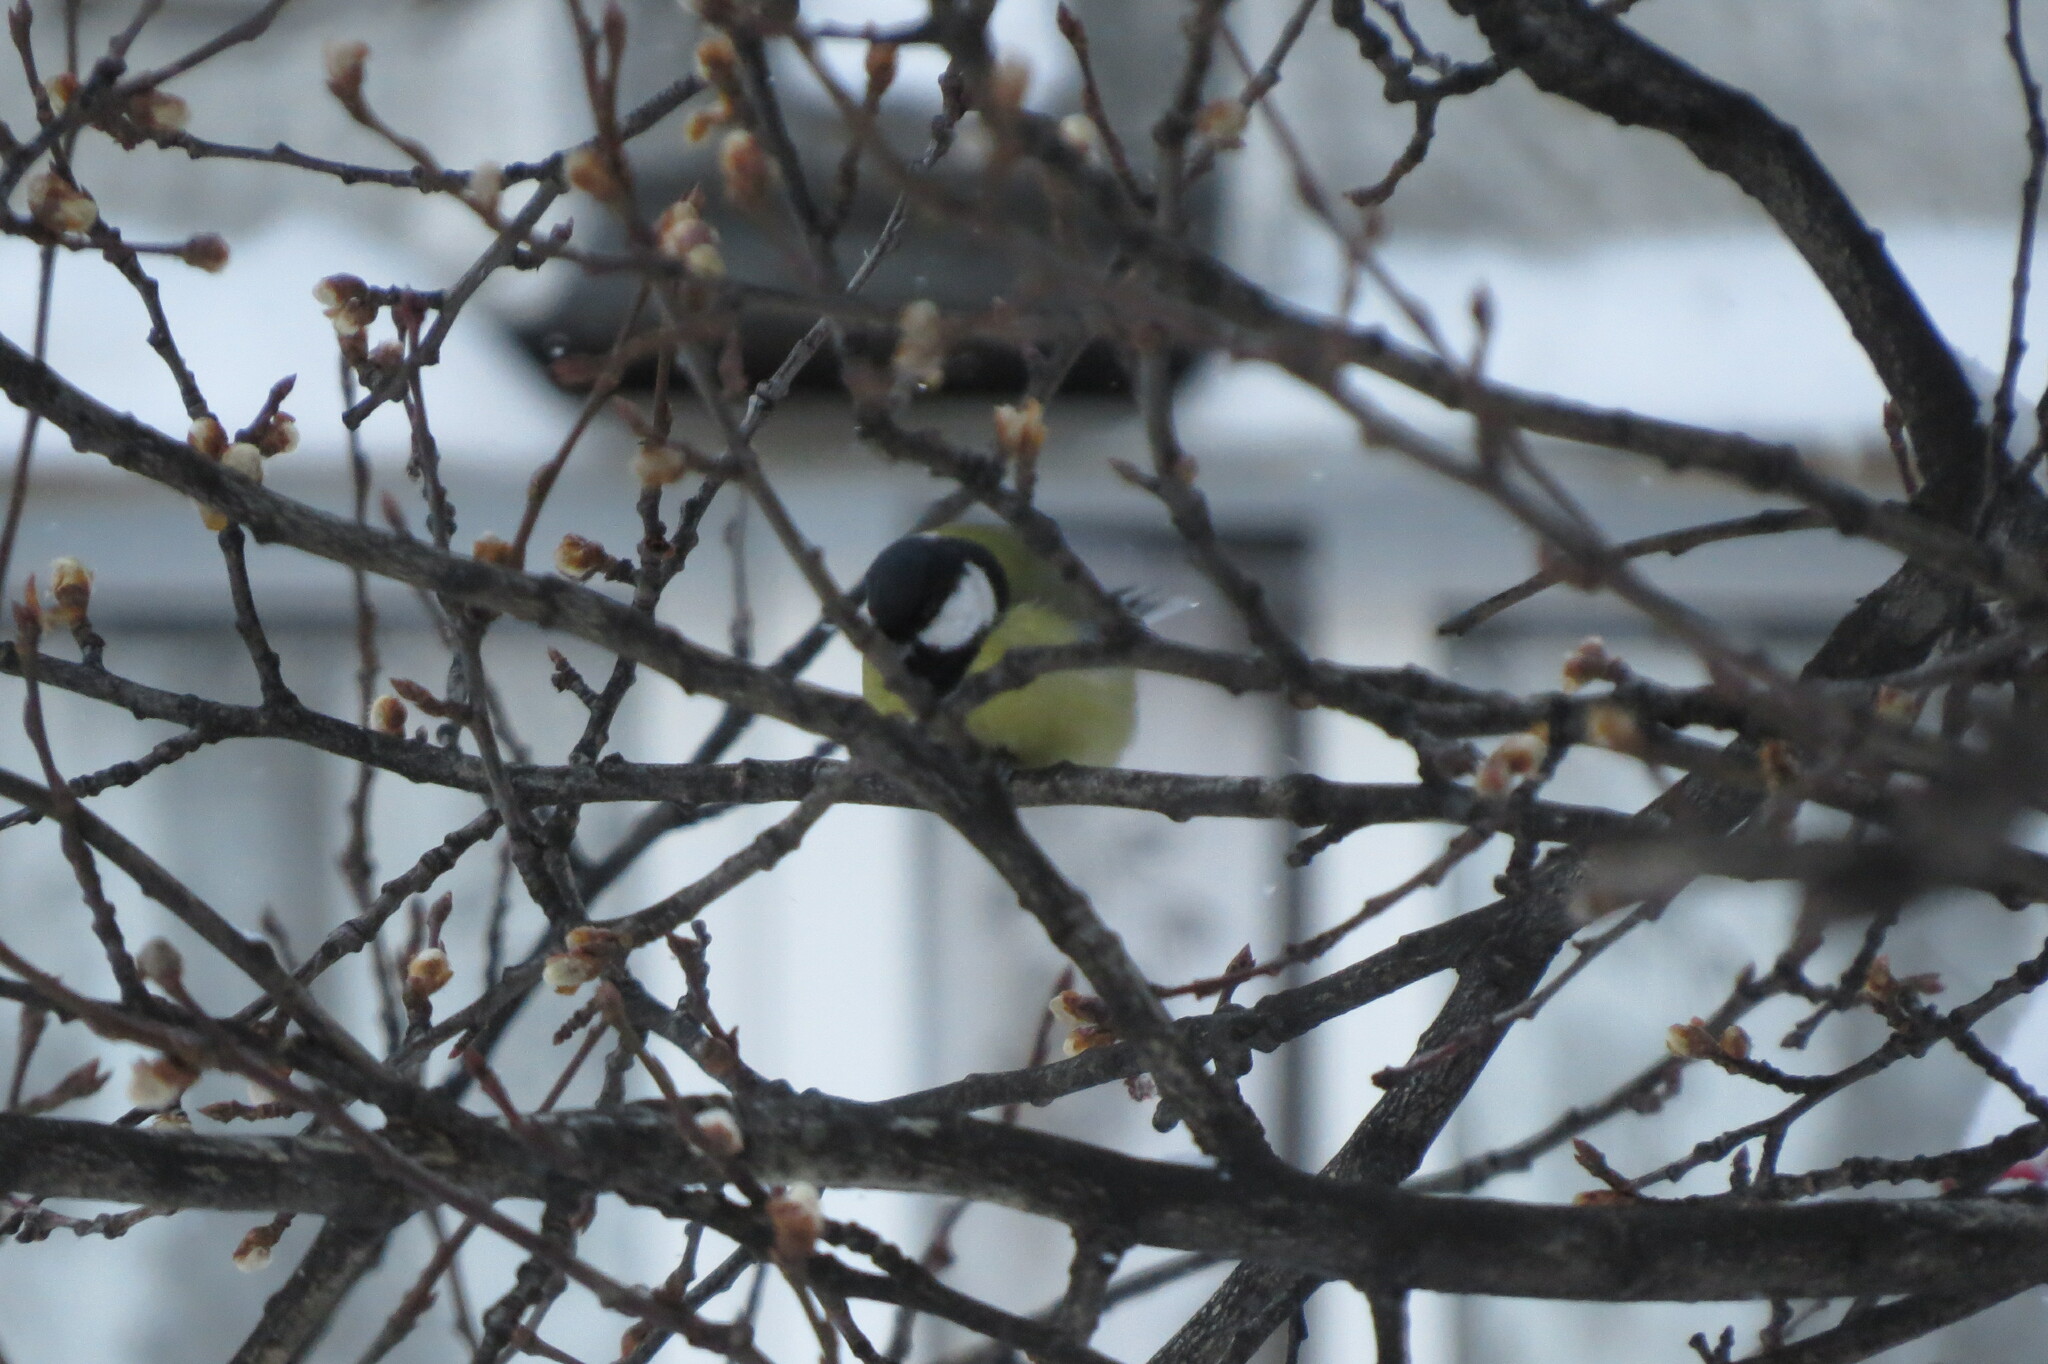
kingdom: Animalia
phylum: Chordata
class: Aves
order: Passeriformes
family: Paridae
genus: Parus
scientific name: Parus major
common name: Great tit
